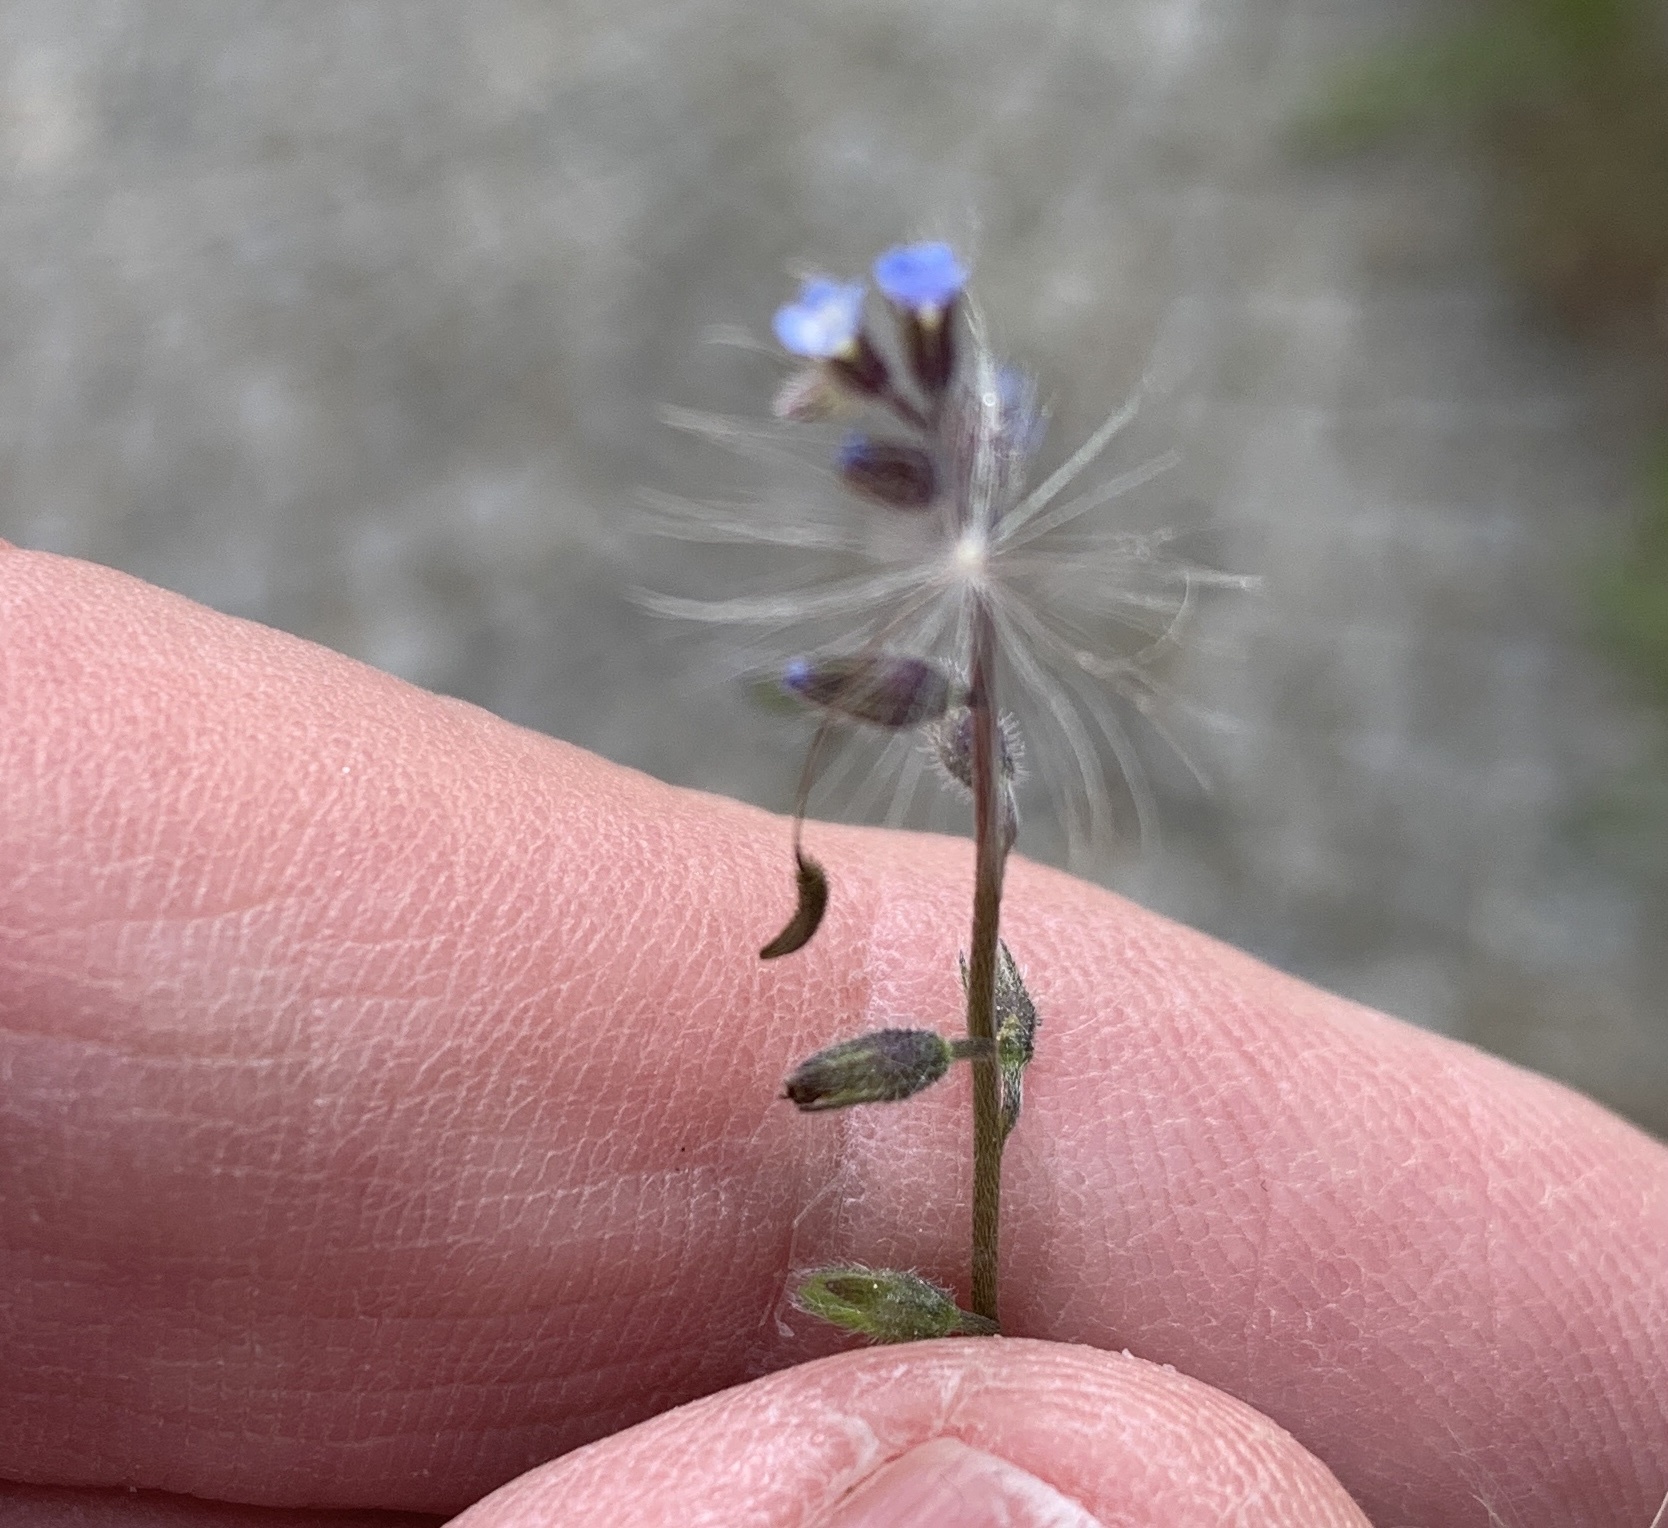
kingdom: Plantae
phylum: Tracheophyta
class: Magnoliopsida
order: Boraginales
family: Boraginaceae
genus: Myosotis
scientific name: Myosotis ramosissima
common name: Early forget-me-not
